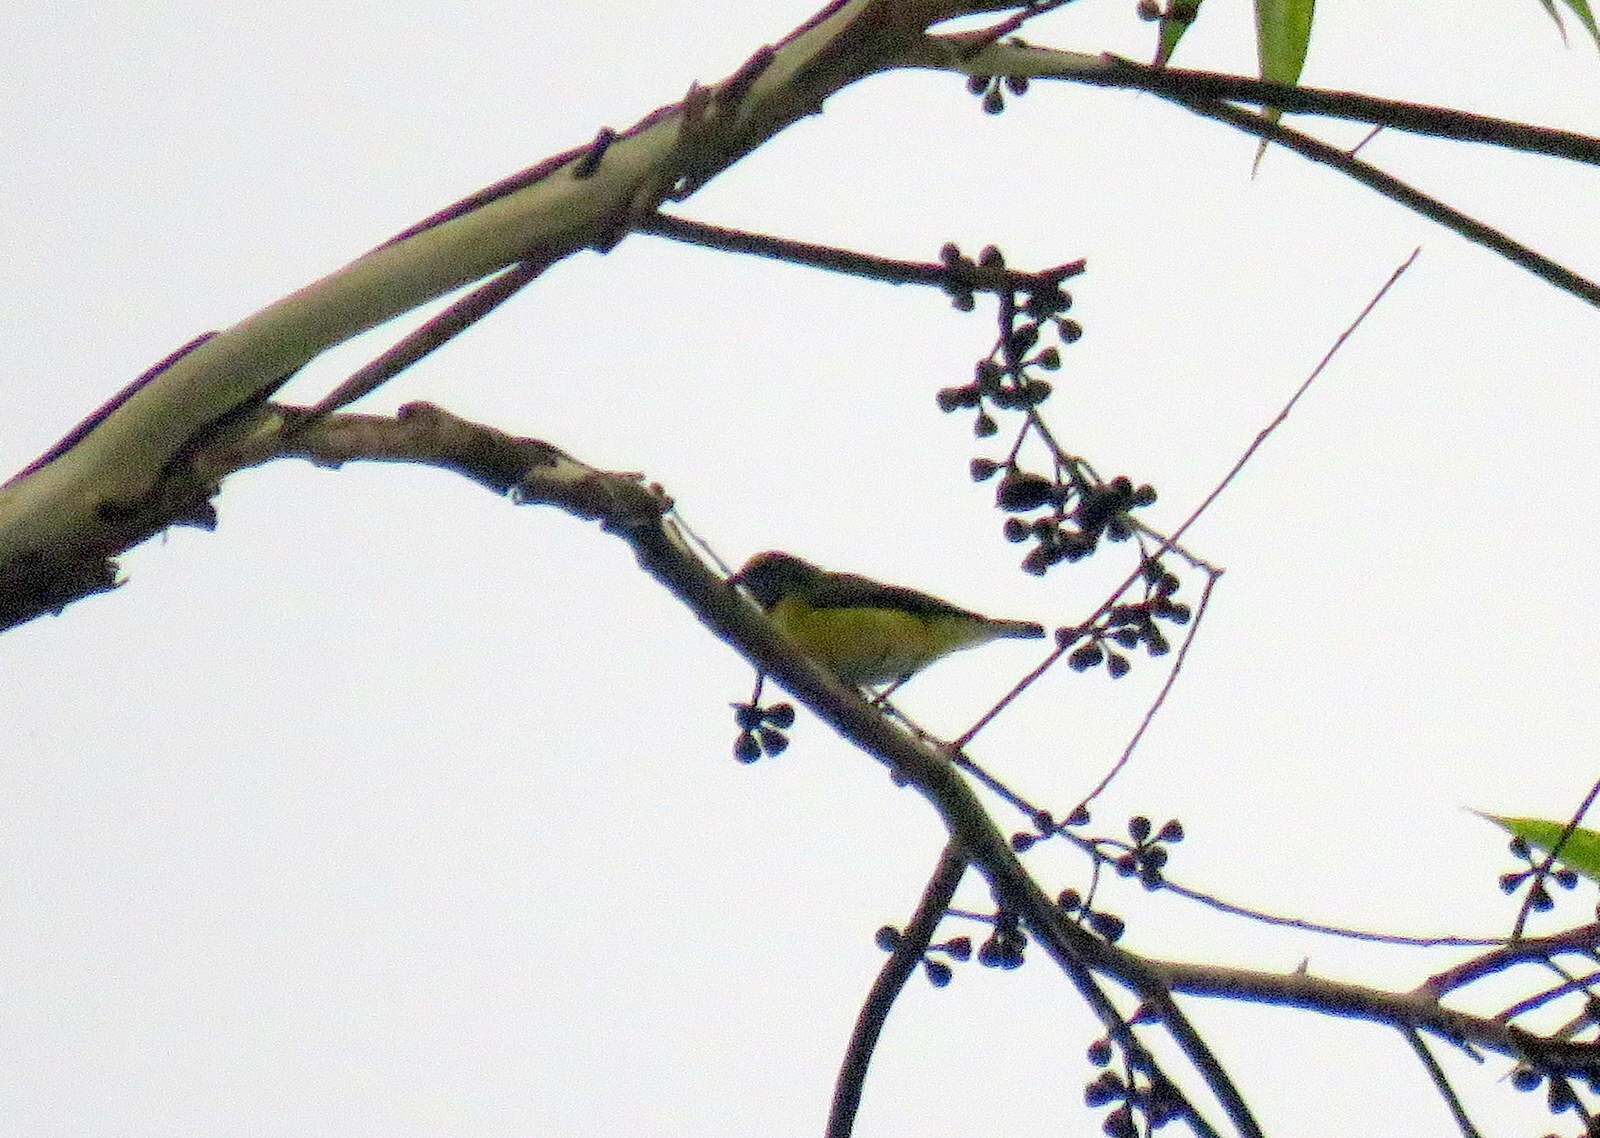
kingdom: Animalia
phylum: Chordata
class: Aves
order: Passeriformes
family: Fringillidae
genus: Euphonia
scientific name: Euphonia chlorotica
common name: Purple-throated euphonia
